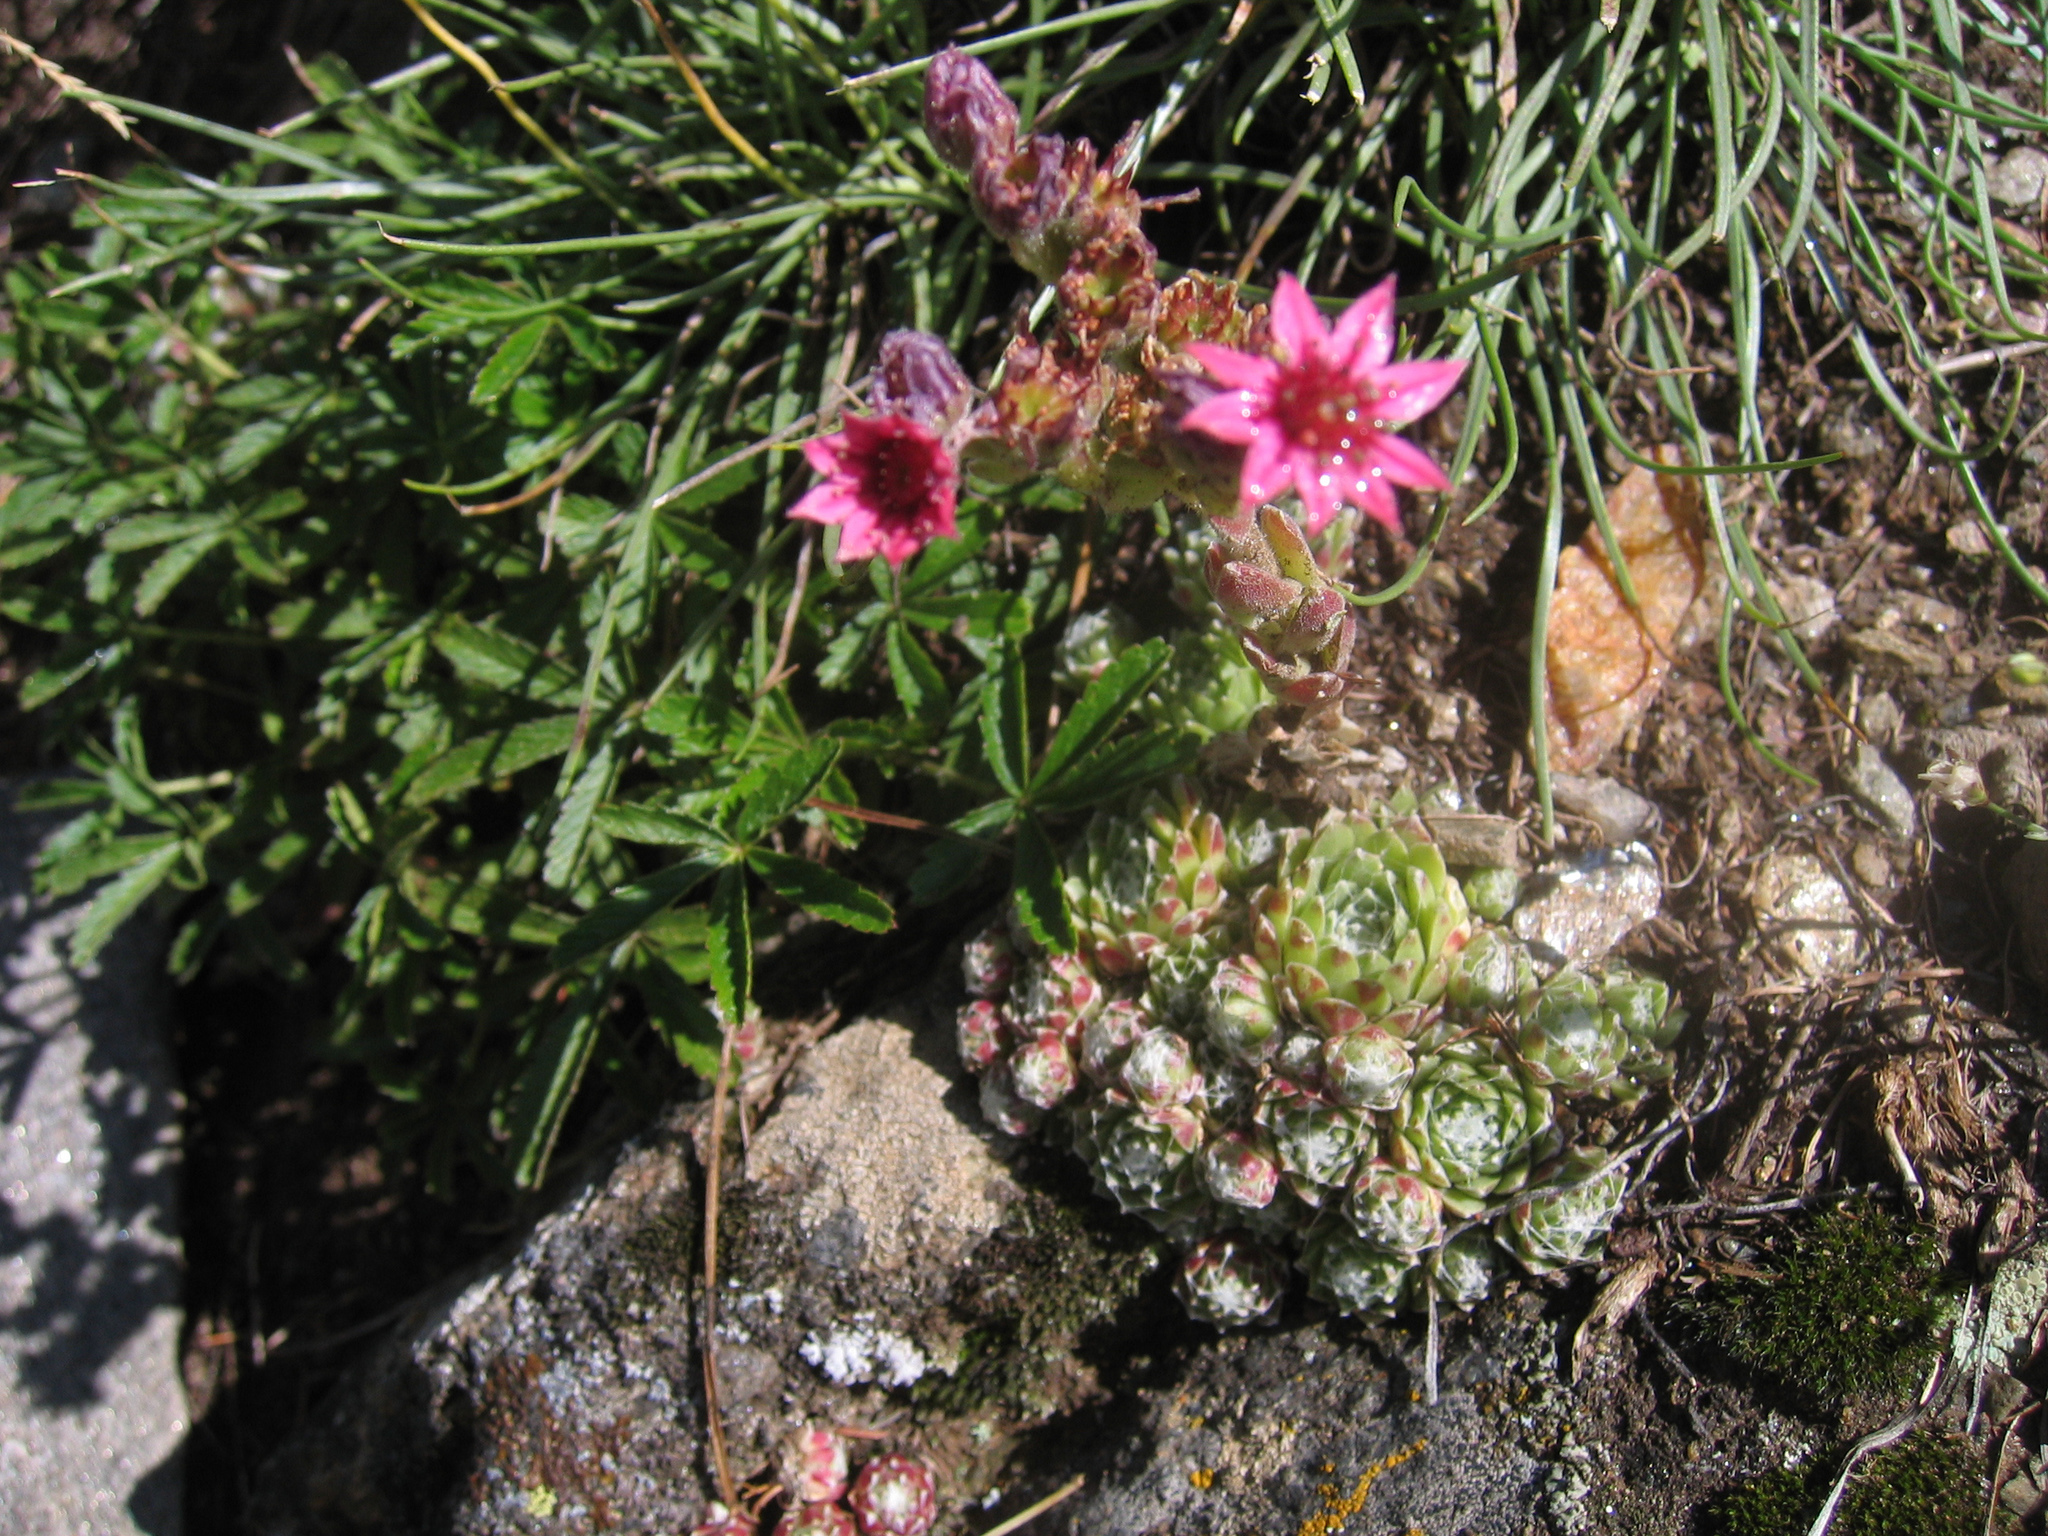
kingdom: Plantae
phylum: Tracheophyta
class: Magnoliopsida
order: Saxifragales
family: Crassulaceae
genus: Sempervivum
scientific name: Sempervivum arachnoideum
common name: Cobweb house-leek
